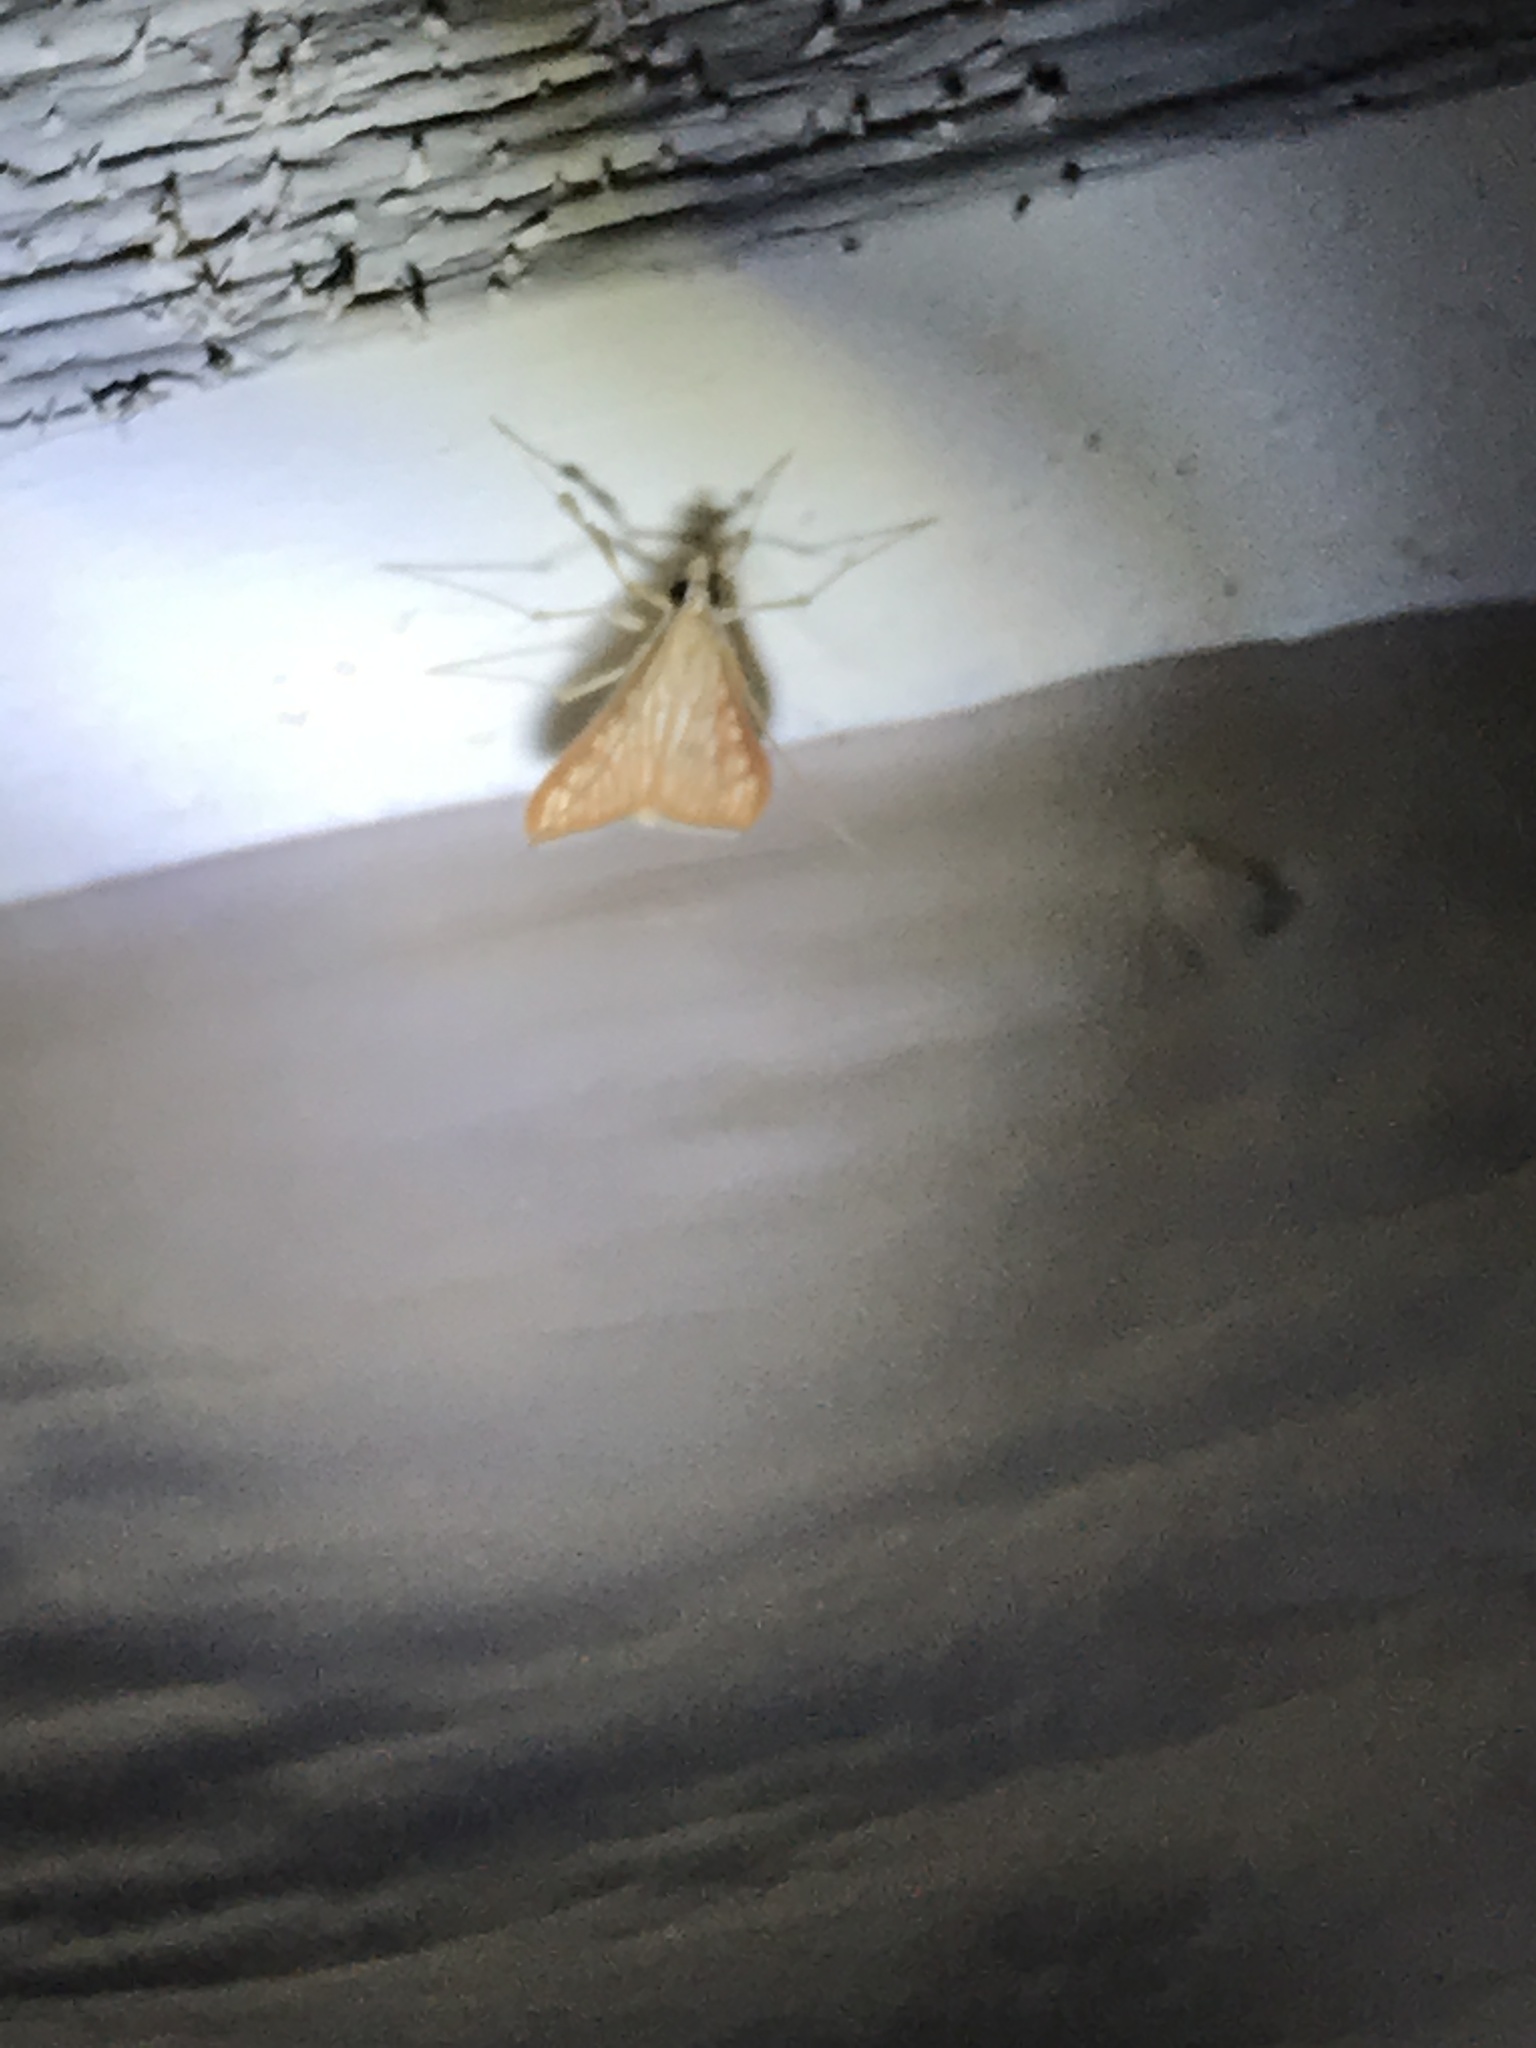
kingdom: Animalia
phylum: Arthropoda
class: Insecta
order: Lepidoptera
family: Crambidae
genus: Antigastra
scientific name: Antigastra catalaunalis
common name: Spanish dot
